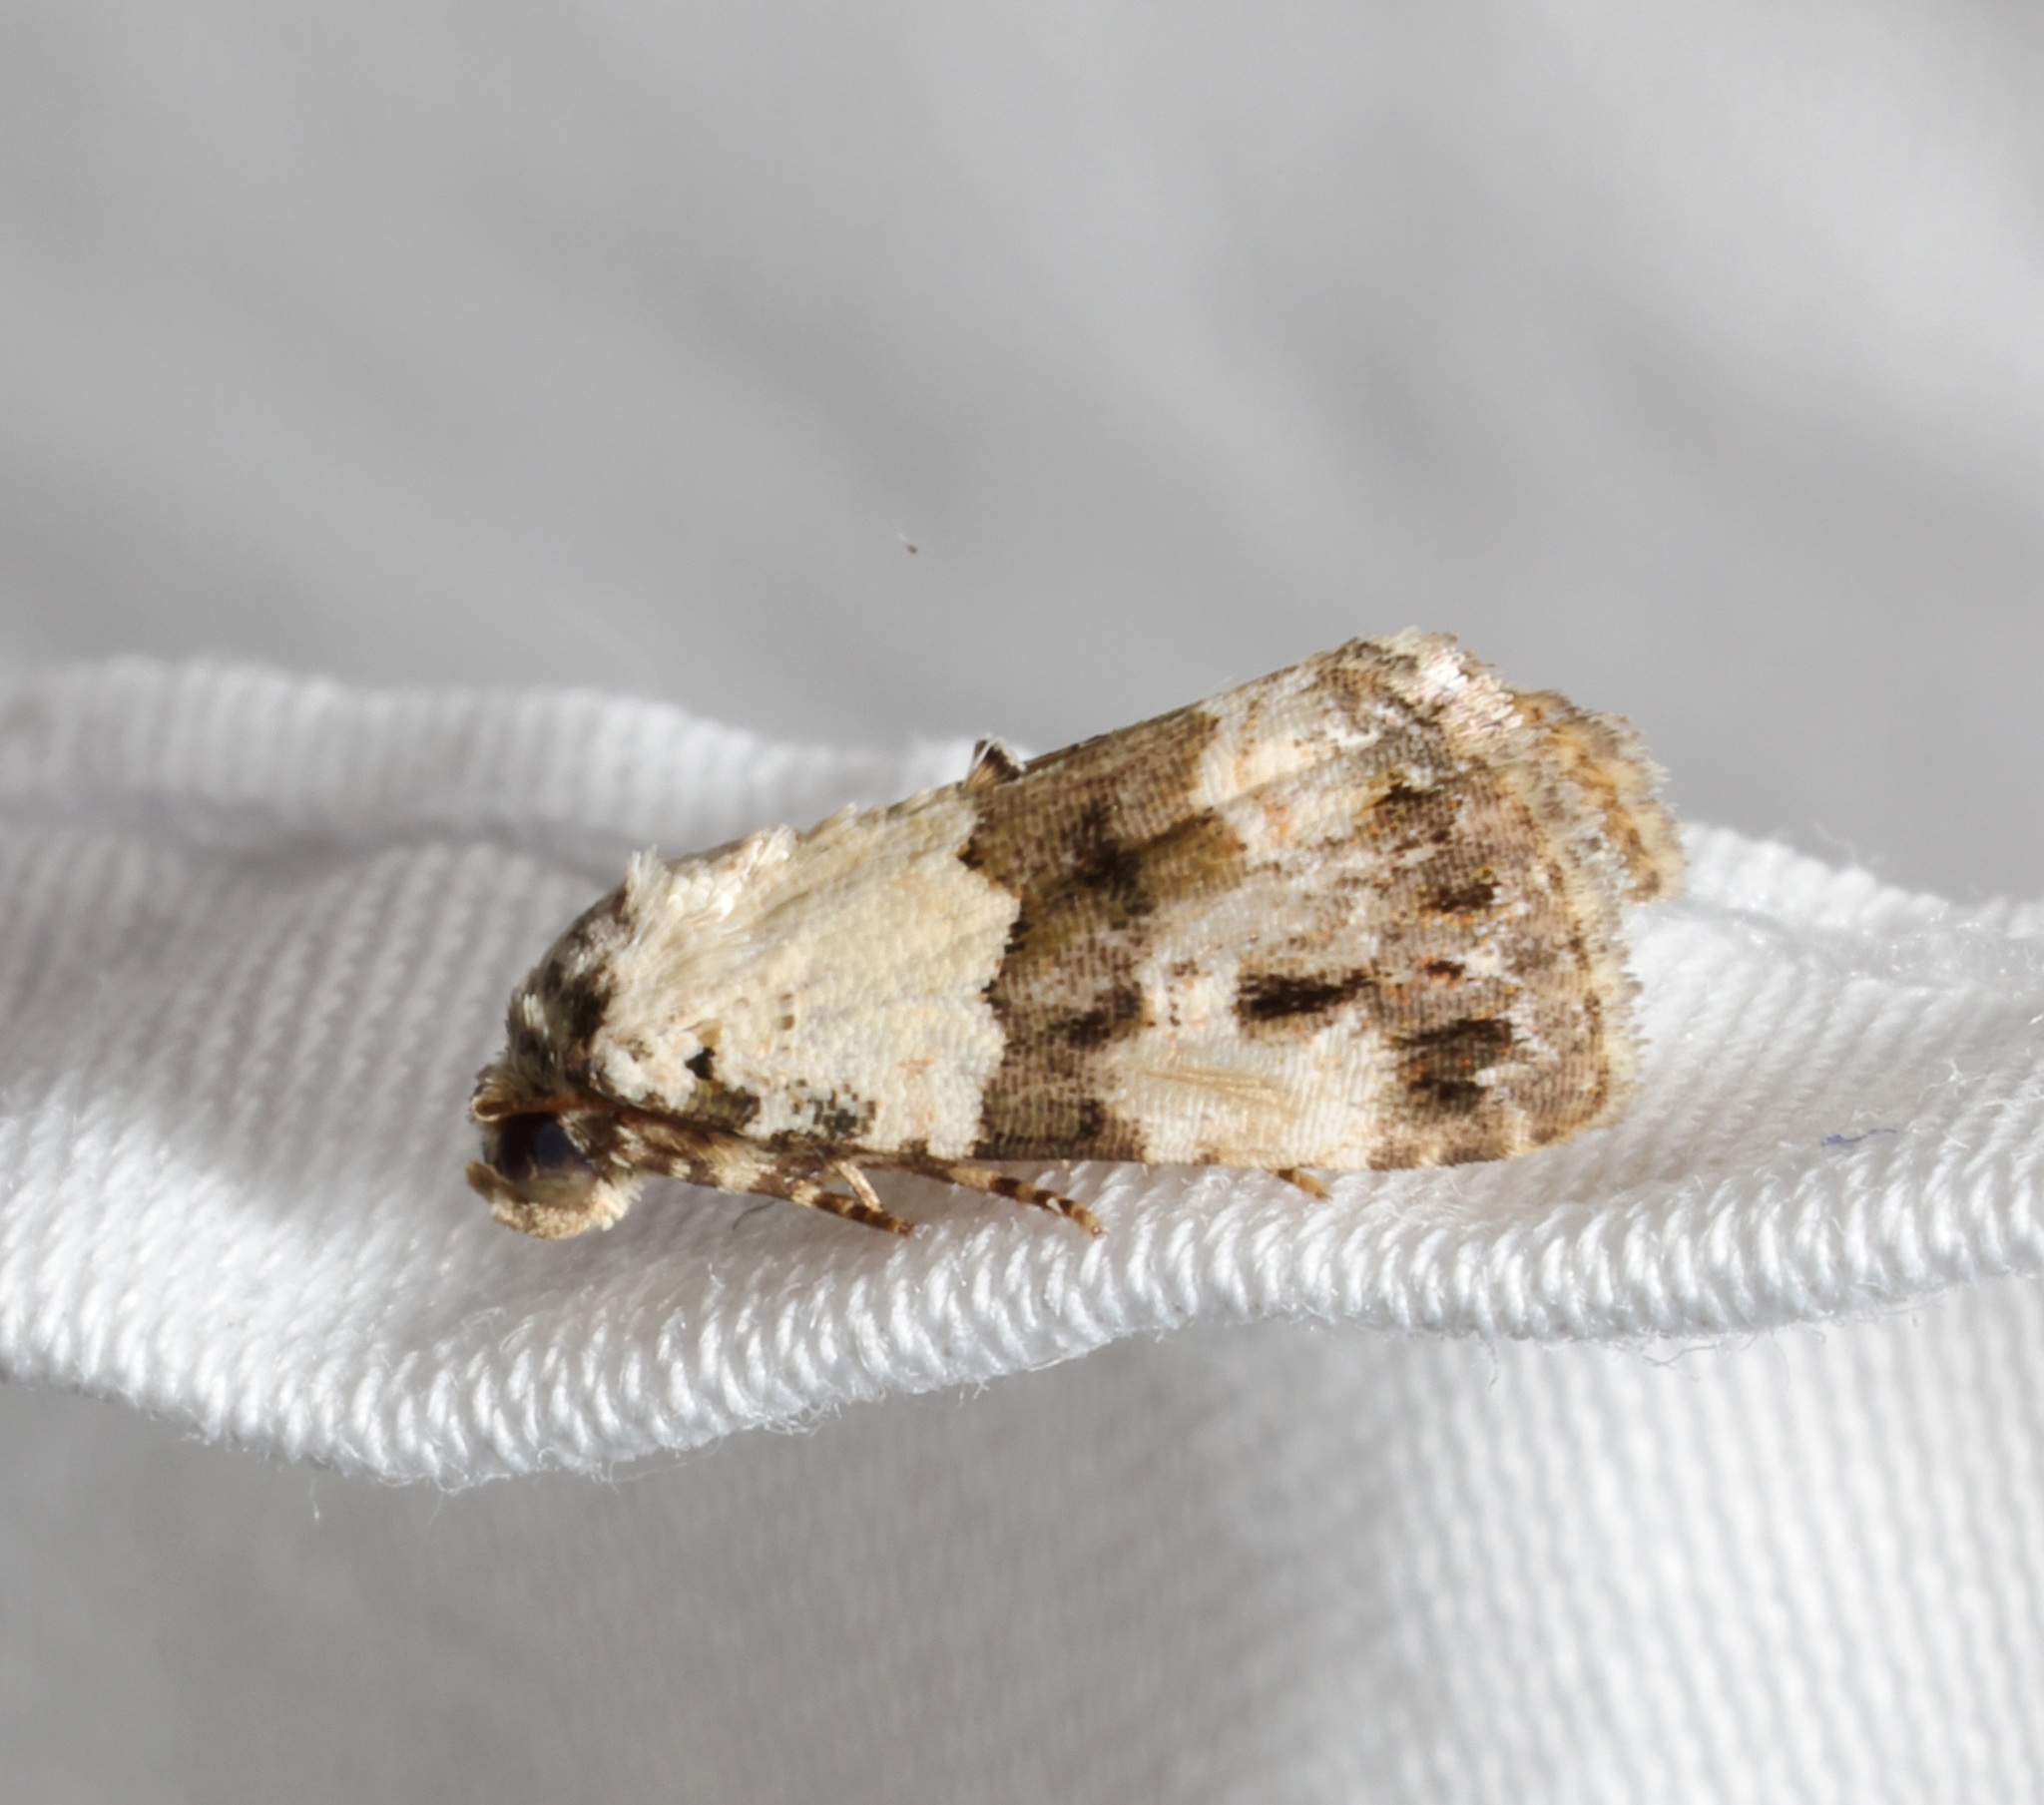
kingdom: Animalia
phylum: Arthropoda
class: Insecta
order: Lepidoptera
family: Noctuidae
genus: Maliattha
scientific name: Maliattha signifera
